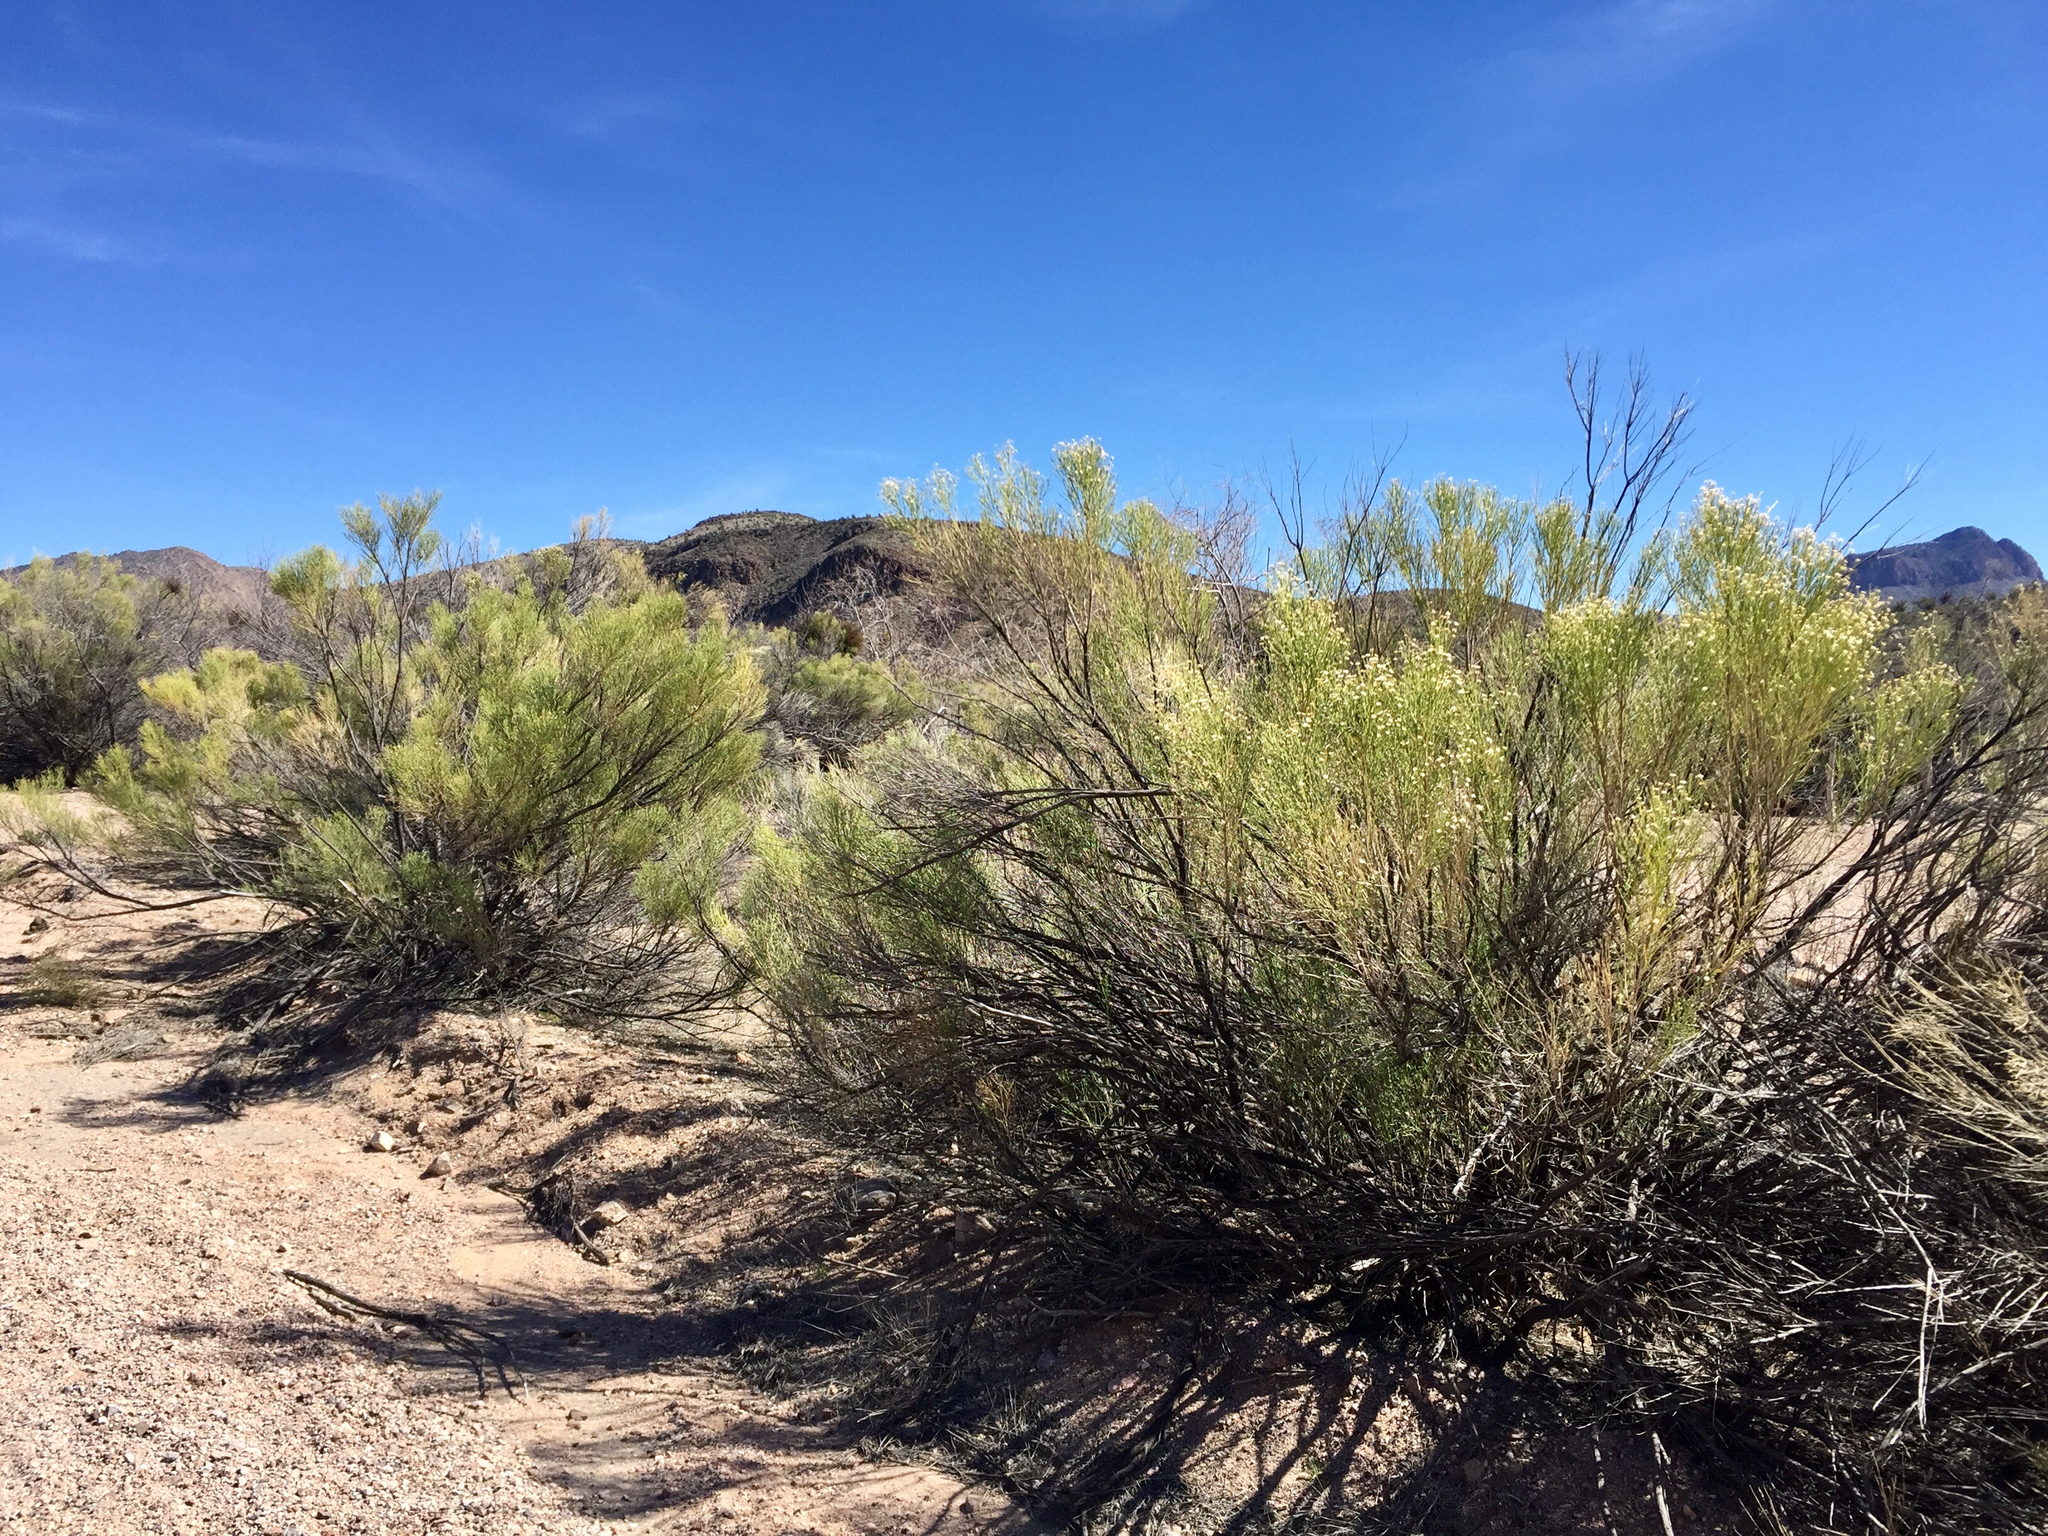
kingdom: Plantae
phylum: Tracheophyta
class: Magnoliopsida
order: Asterales
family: Asteraceae
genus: Baccharis
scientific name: Baccharis sarothroides
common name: Desert-broom
